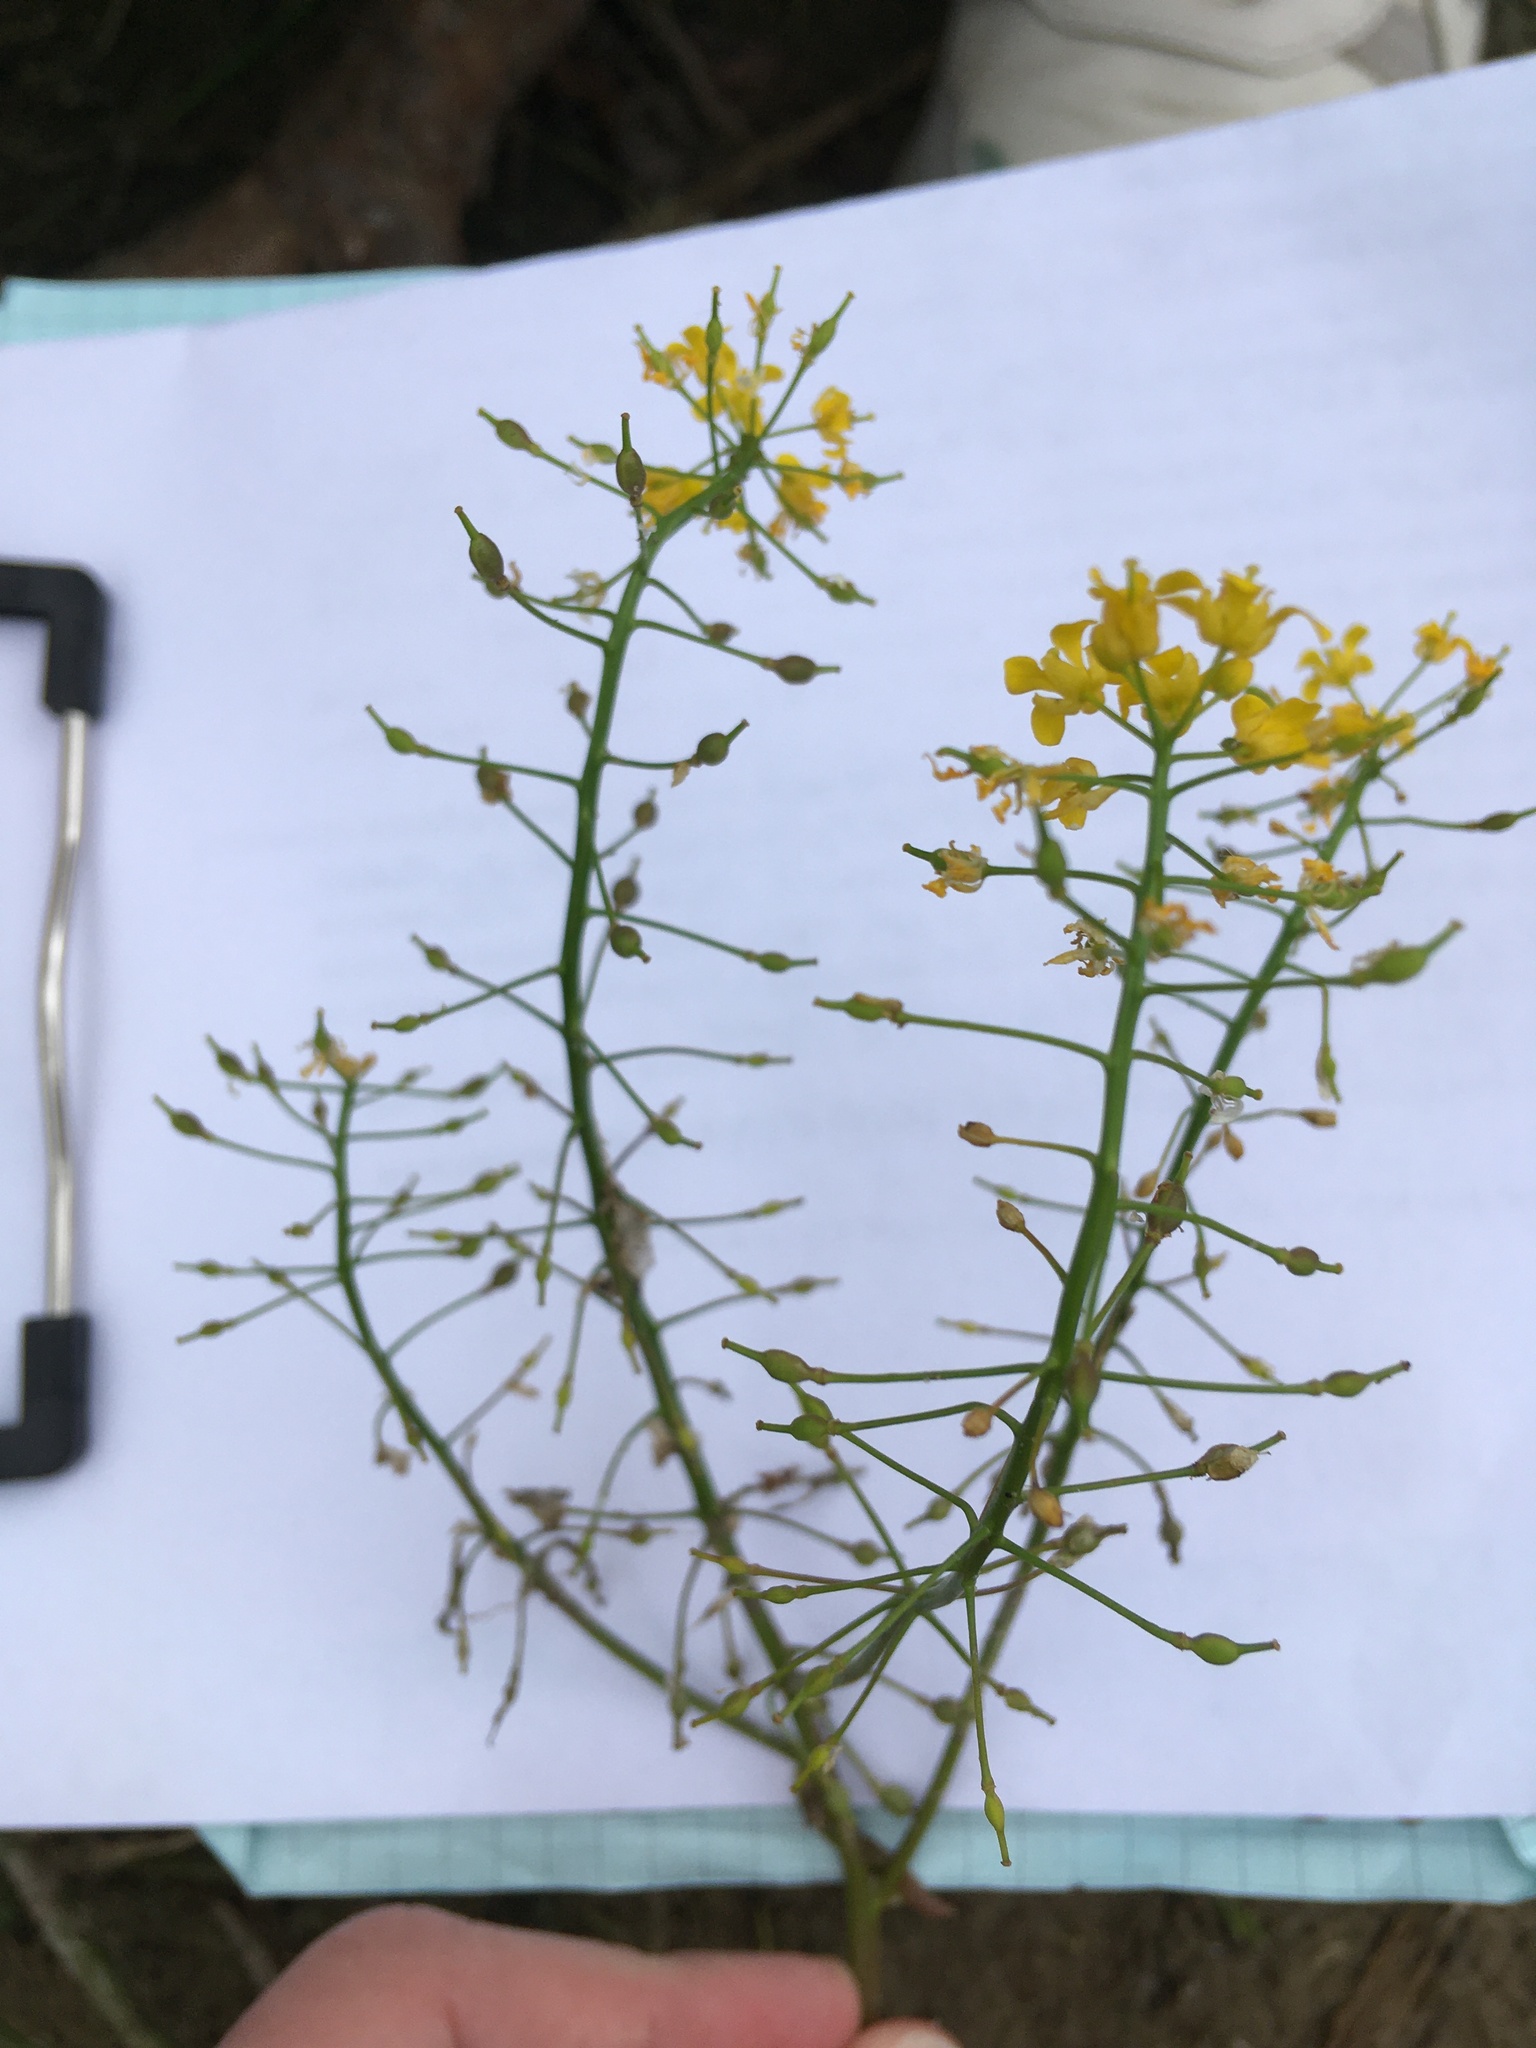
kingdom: Plantae
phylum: Tracheophyta
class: Magnoliopsida
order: Brassicales
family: Brassicaceae
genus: Rorippa
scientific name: Rorippa amphibia
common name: Great yellow-cress
